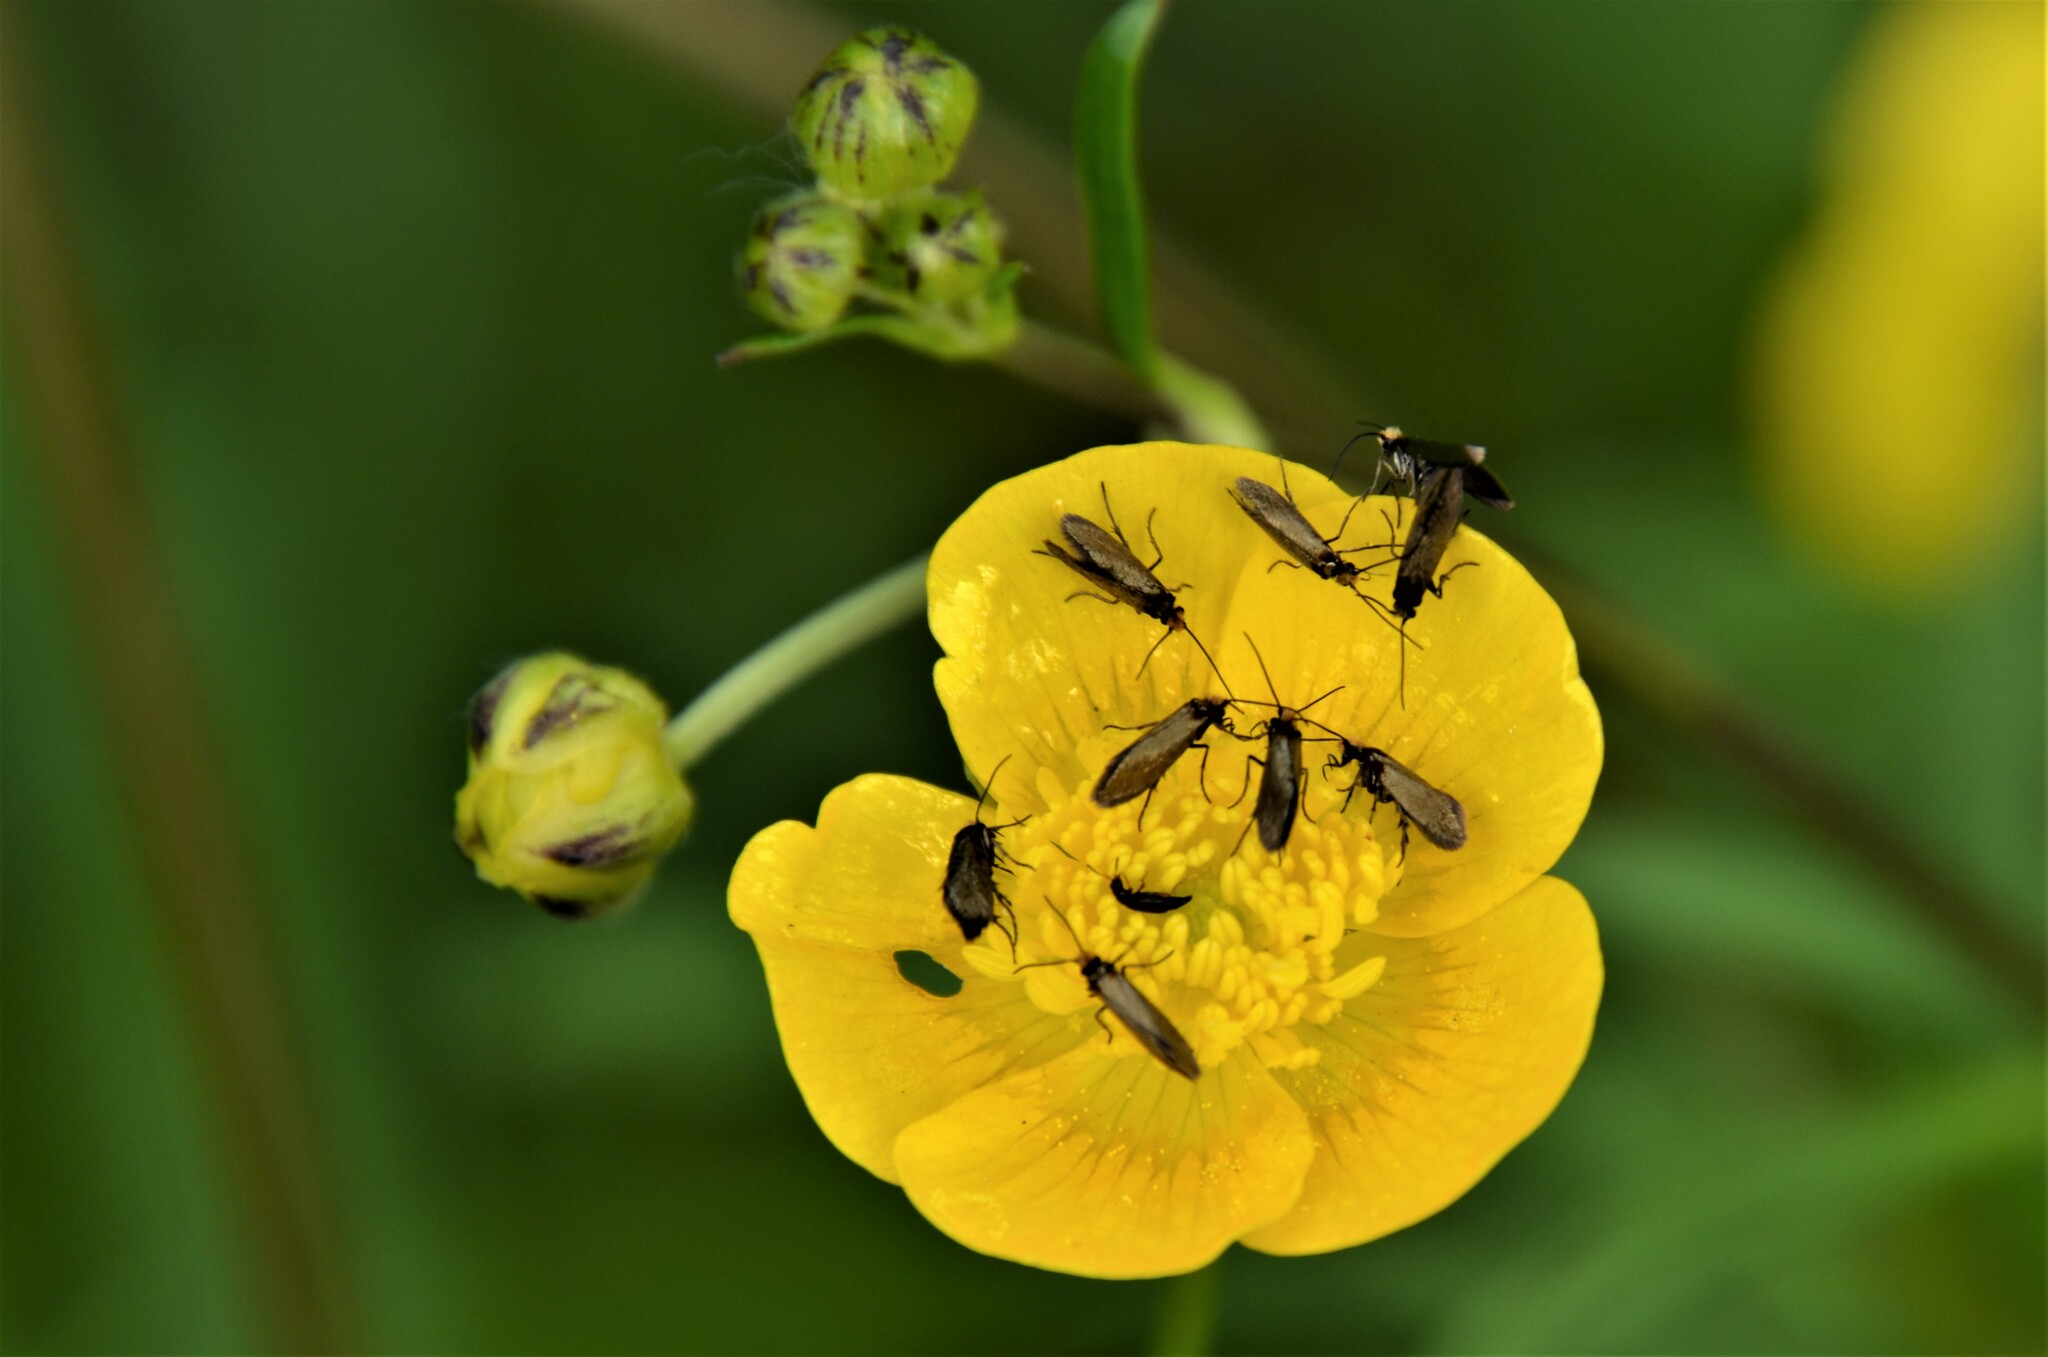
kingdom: Animalia
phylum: Arthropoda
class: Insecta
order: Lepidoptera
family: Micropterigidae
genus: Micropterix
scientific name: Micropterix calthella
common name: Plain gold
